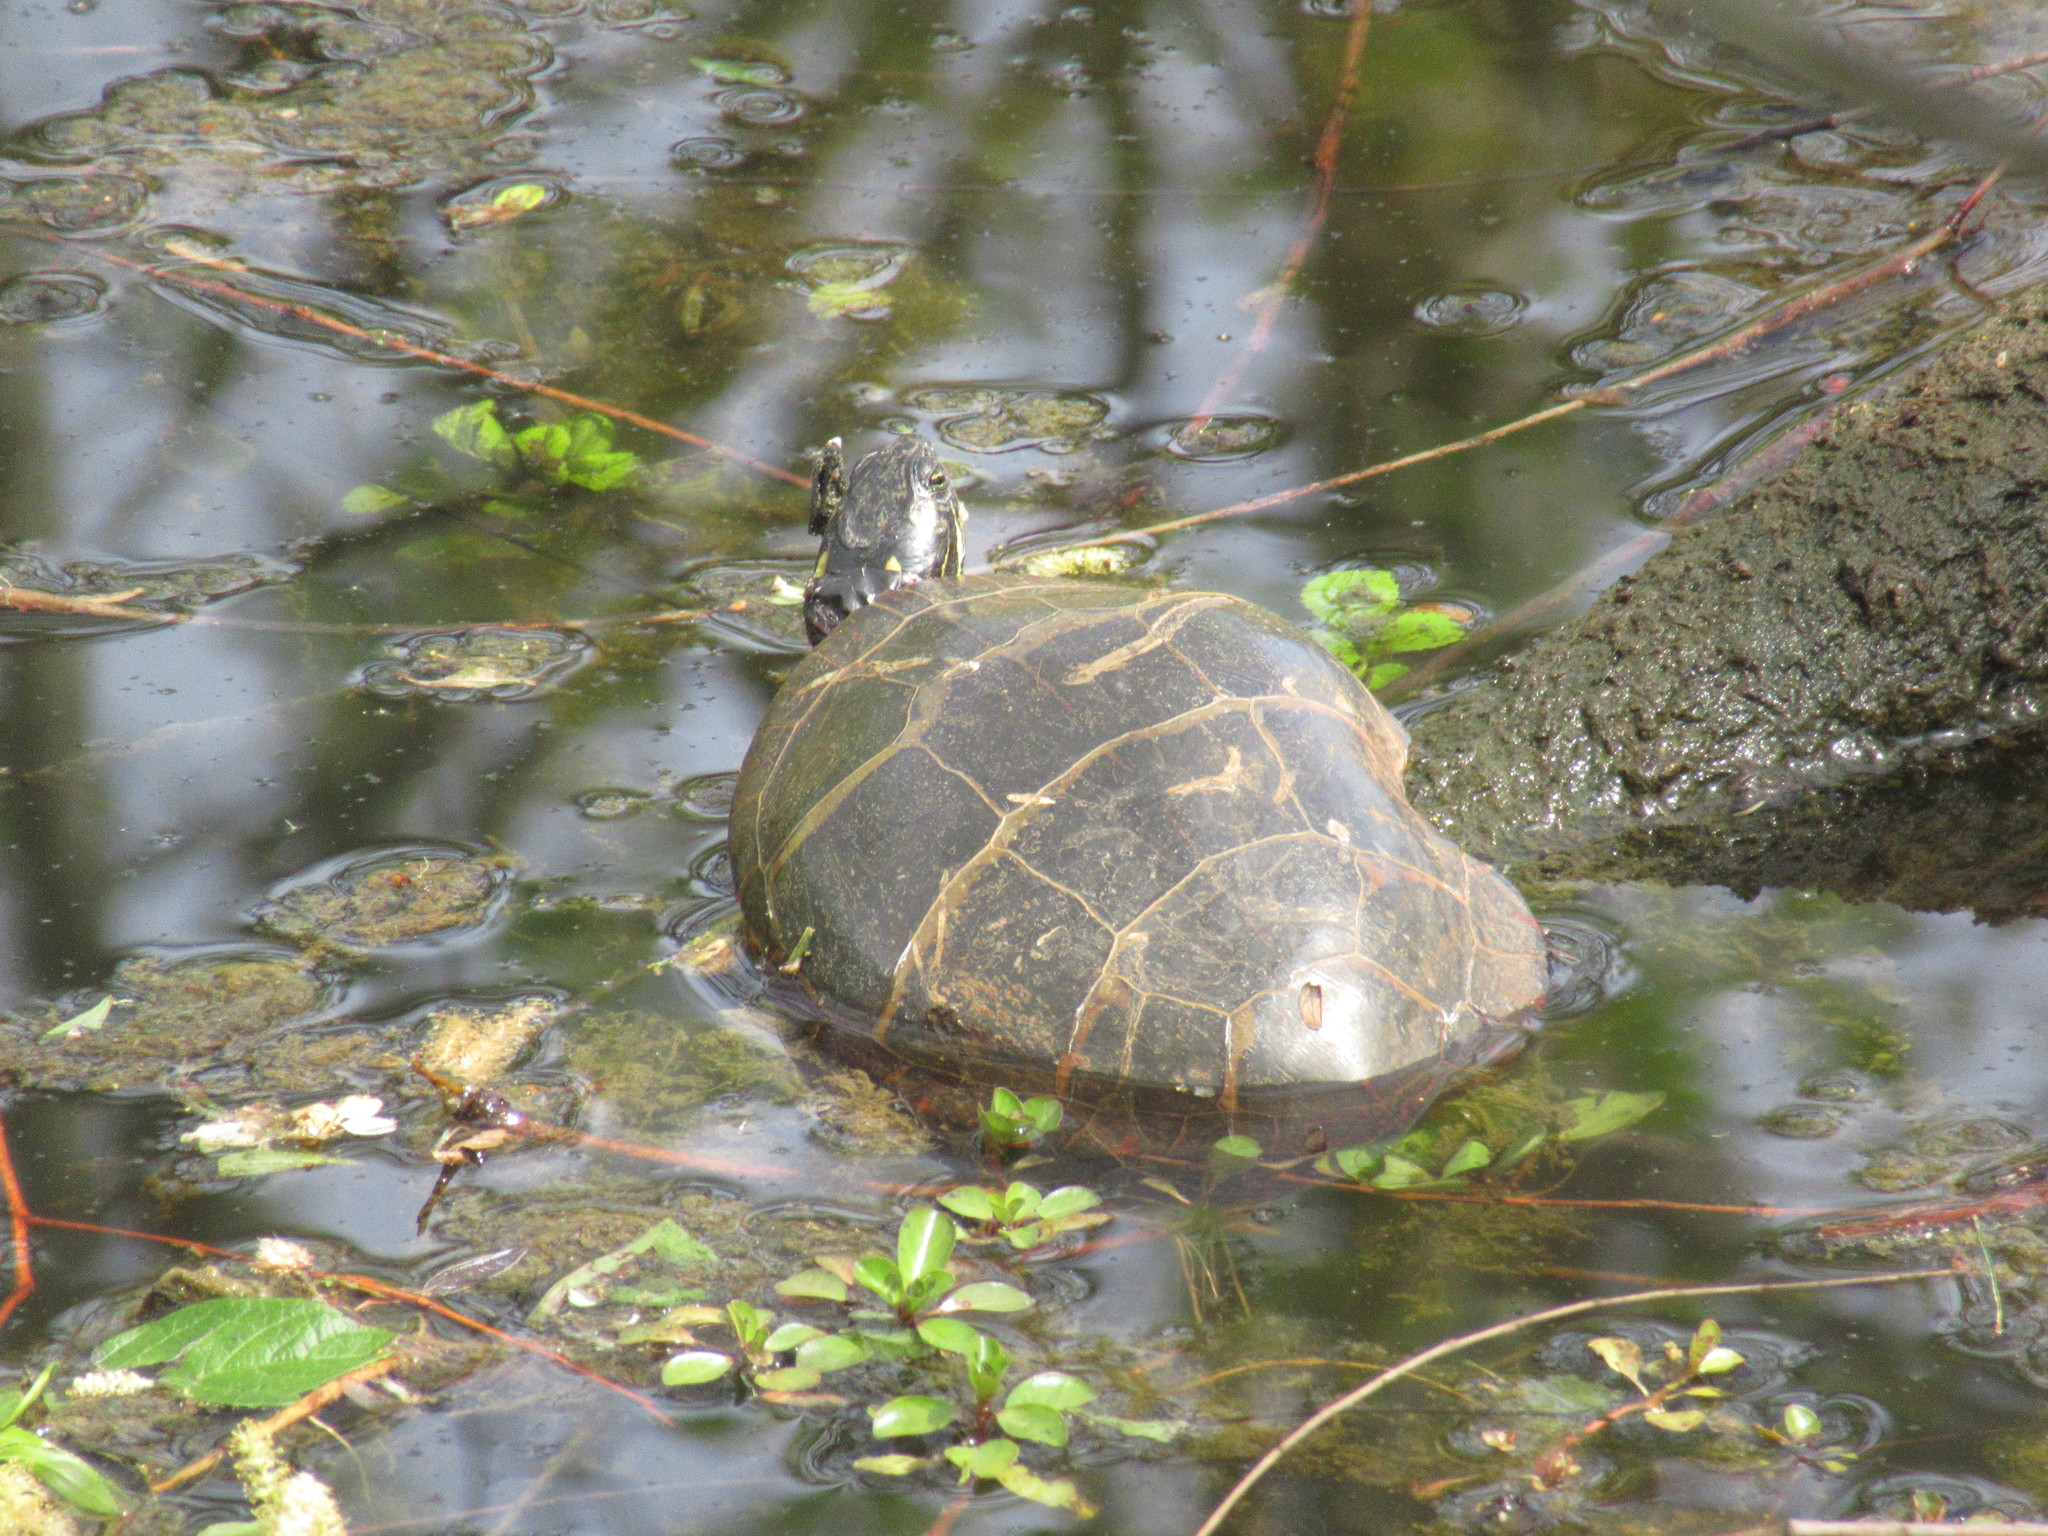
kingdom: Animalia
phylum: Chordata
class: Testudines
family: Emydidae
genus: Chrysemys
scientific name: Chrysemys picta
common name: Painted turtle
